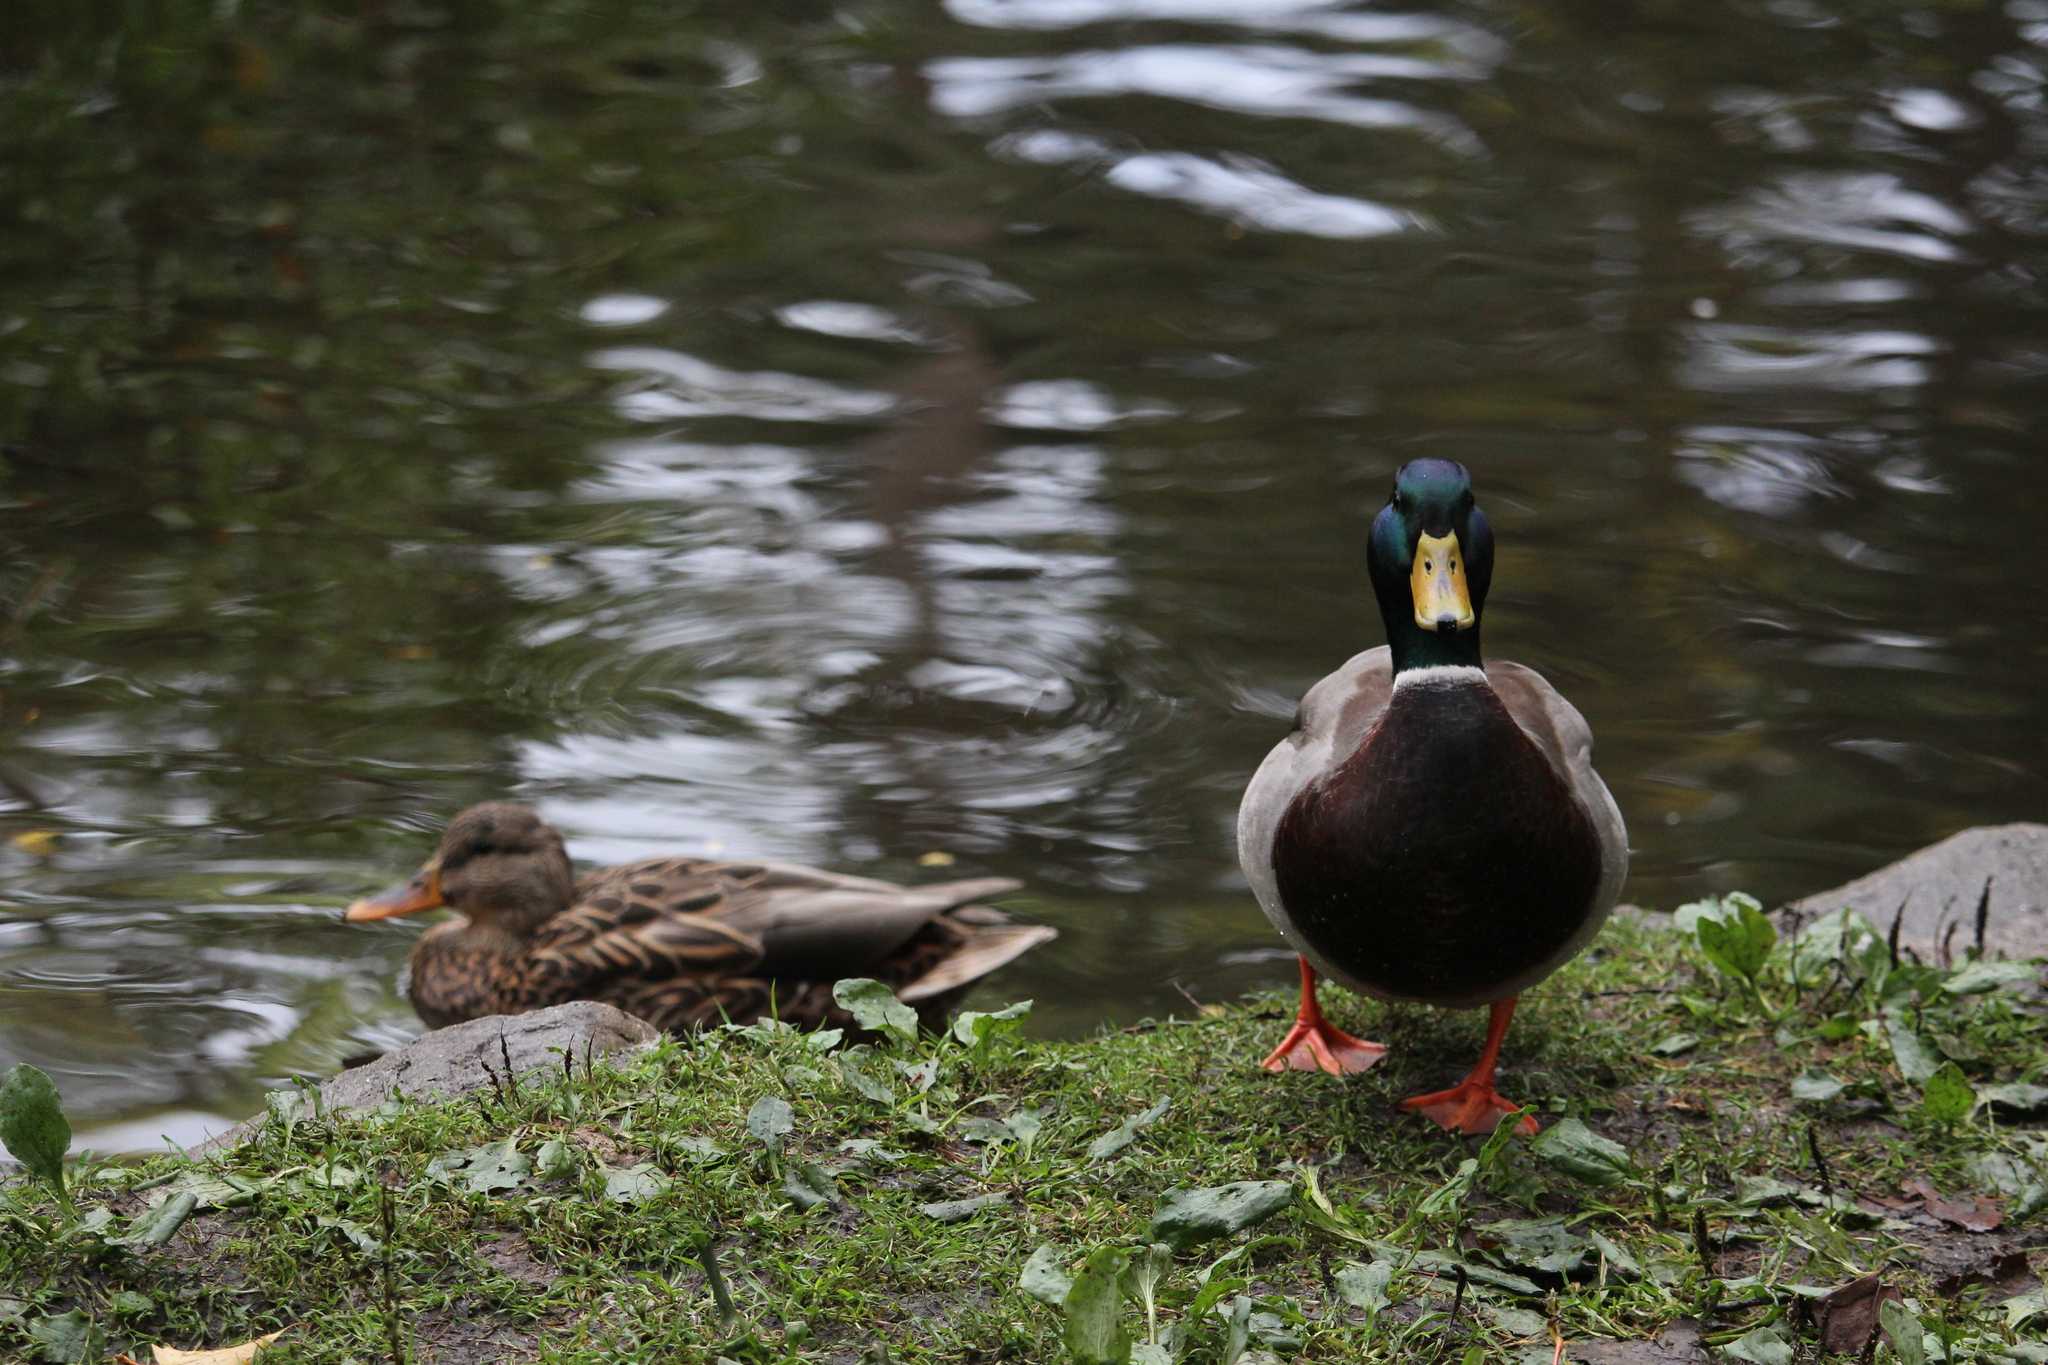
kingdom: Animalia
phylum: Chordata
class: Aves
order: Anseriformes
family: Anatidae
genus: Anas
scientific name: Anas platyrhynchos
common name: Mallard
